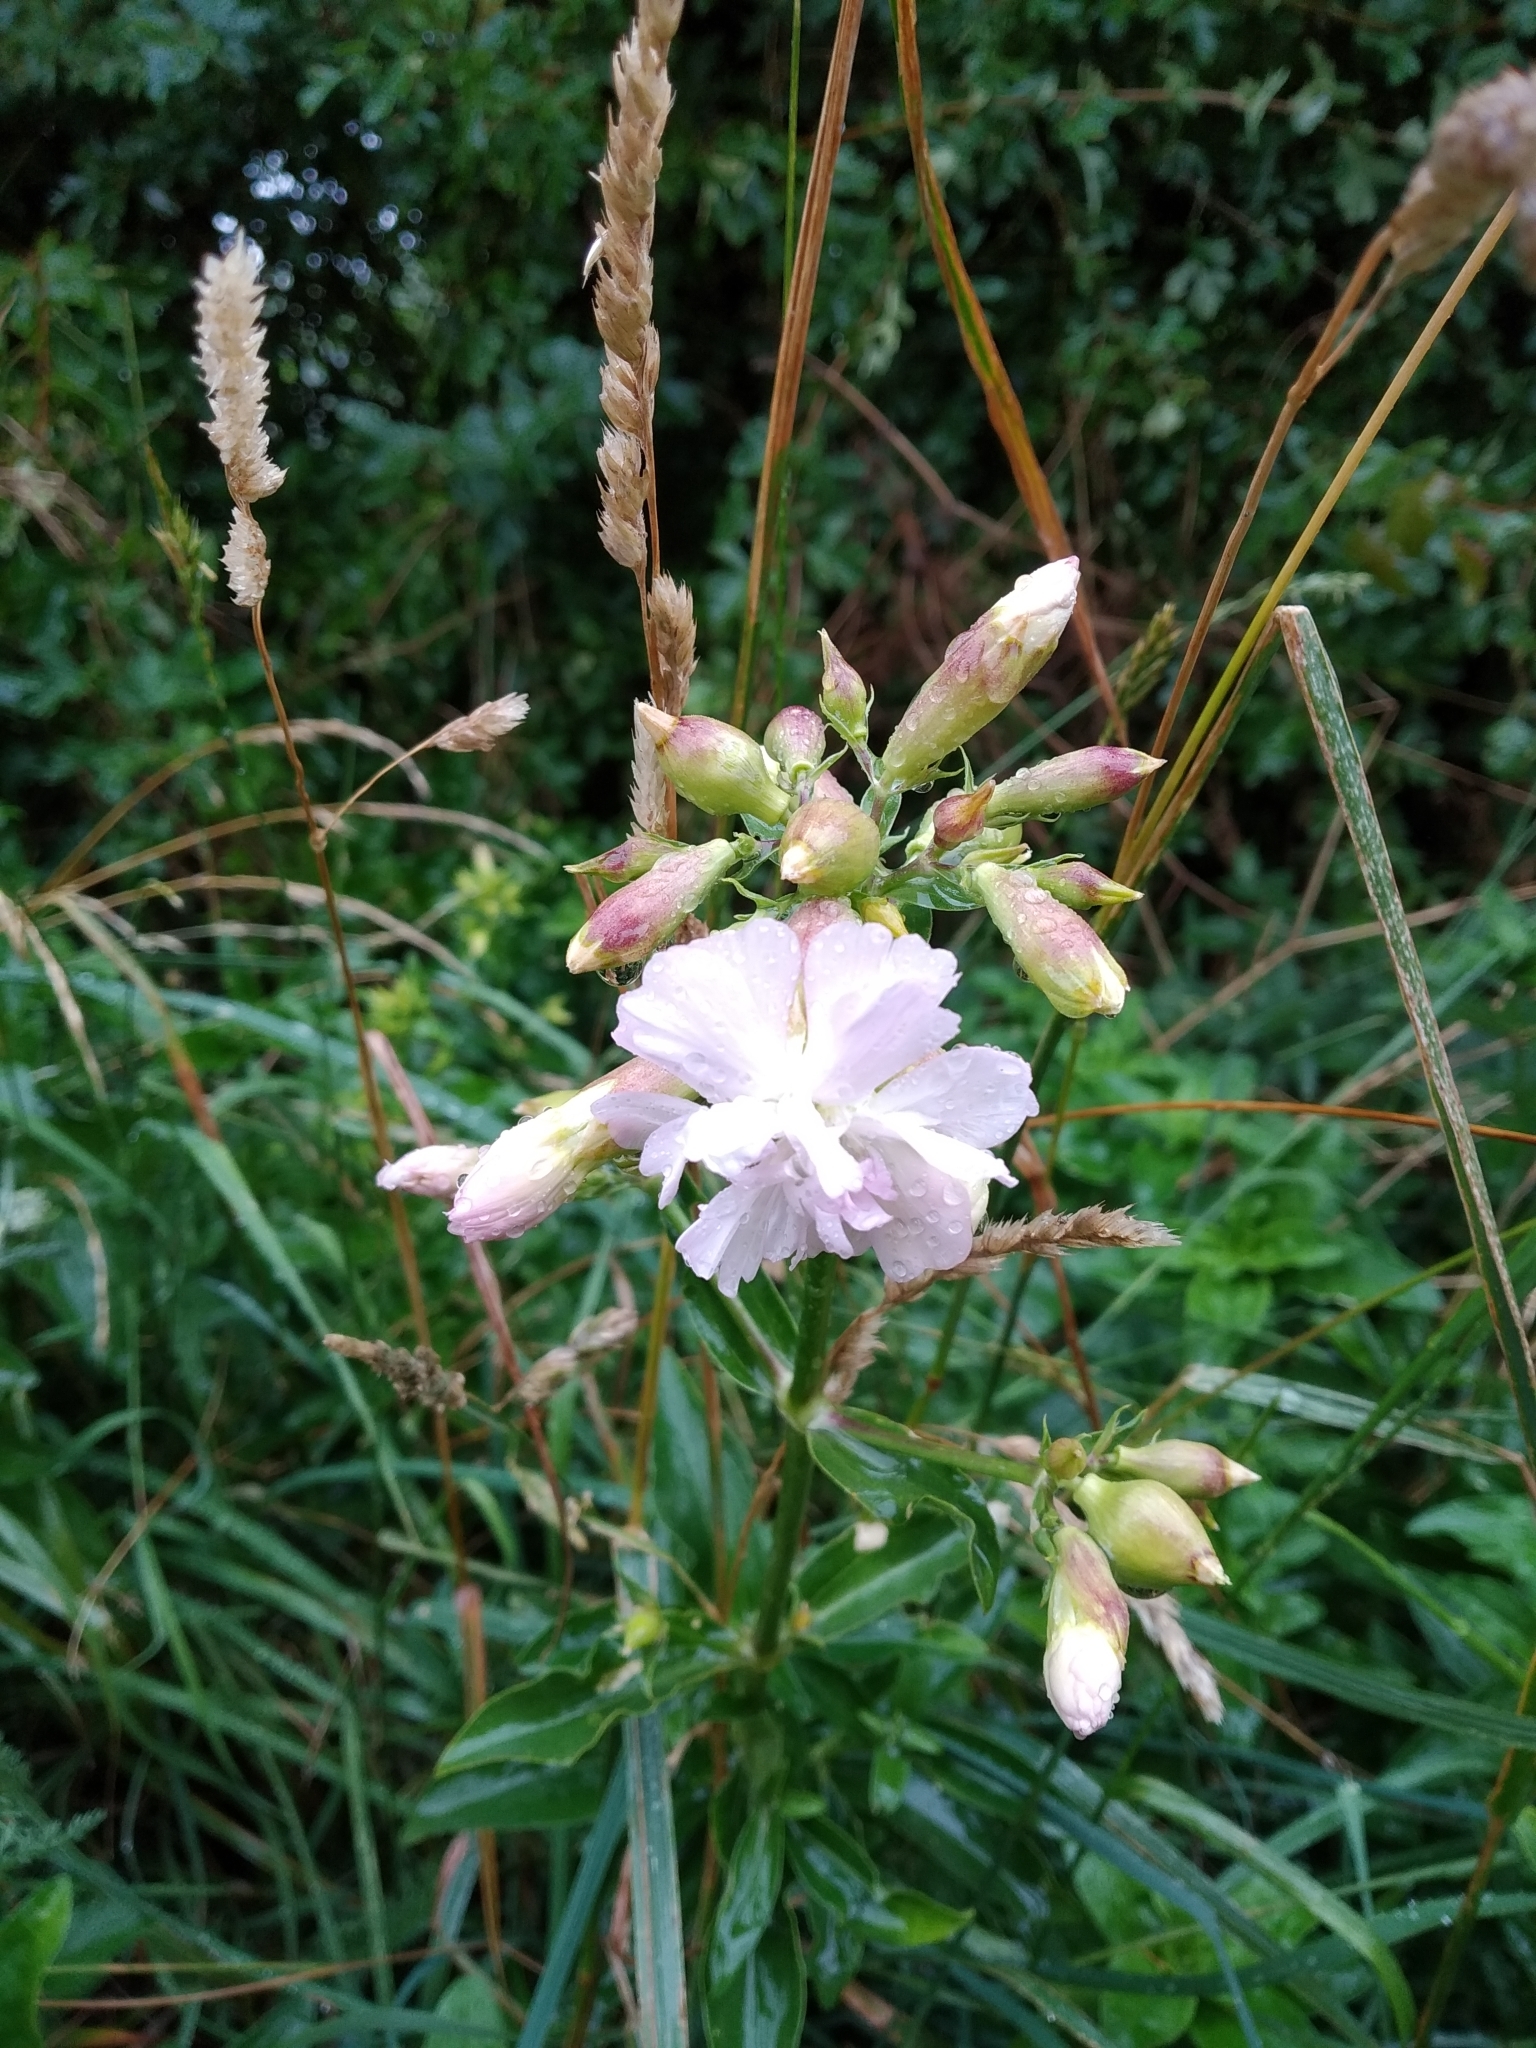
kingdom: Plantae
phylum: Tracheophyta
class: Magnoliopsida
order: Caryophyllales
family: Caryophyllaceae
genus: Saponaria
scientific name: Saponaria officinalis
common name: Soapwort
